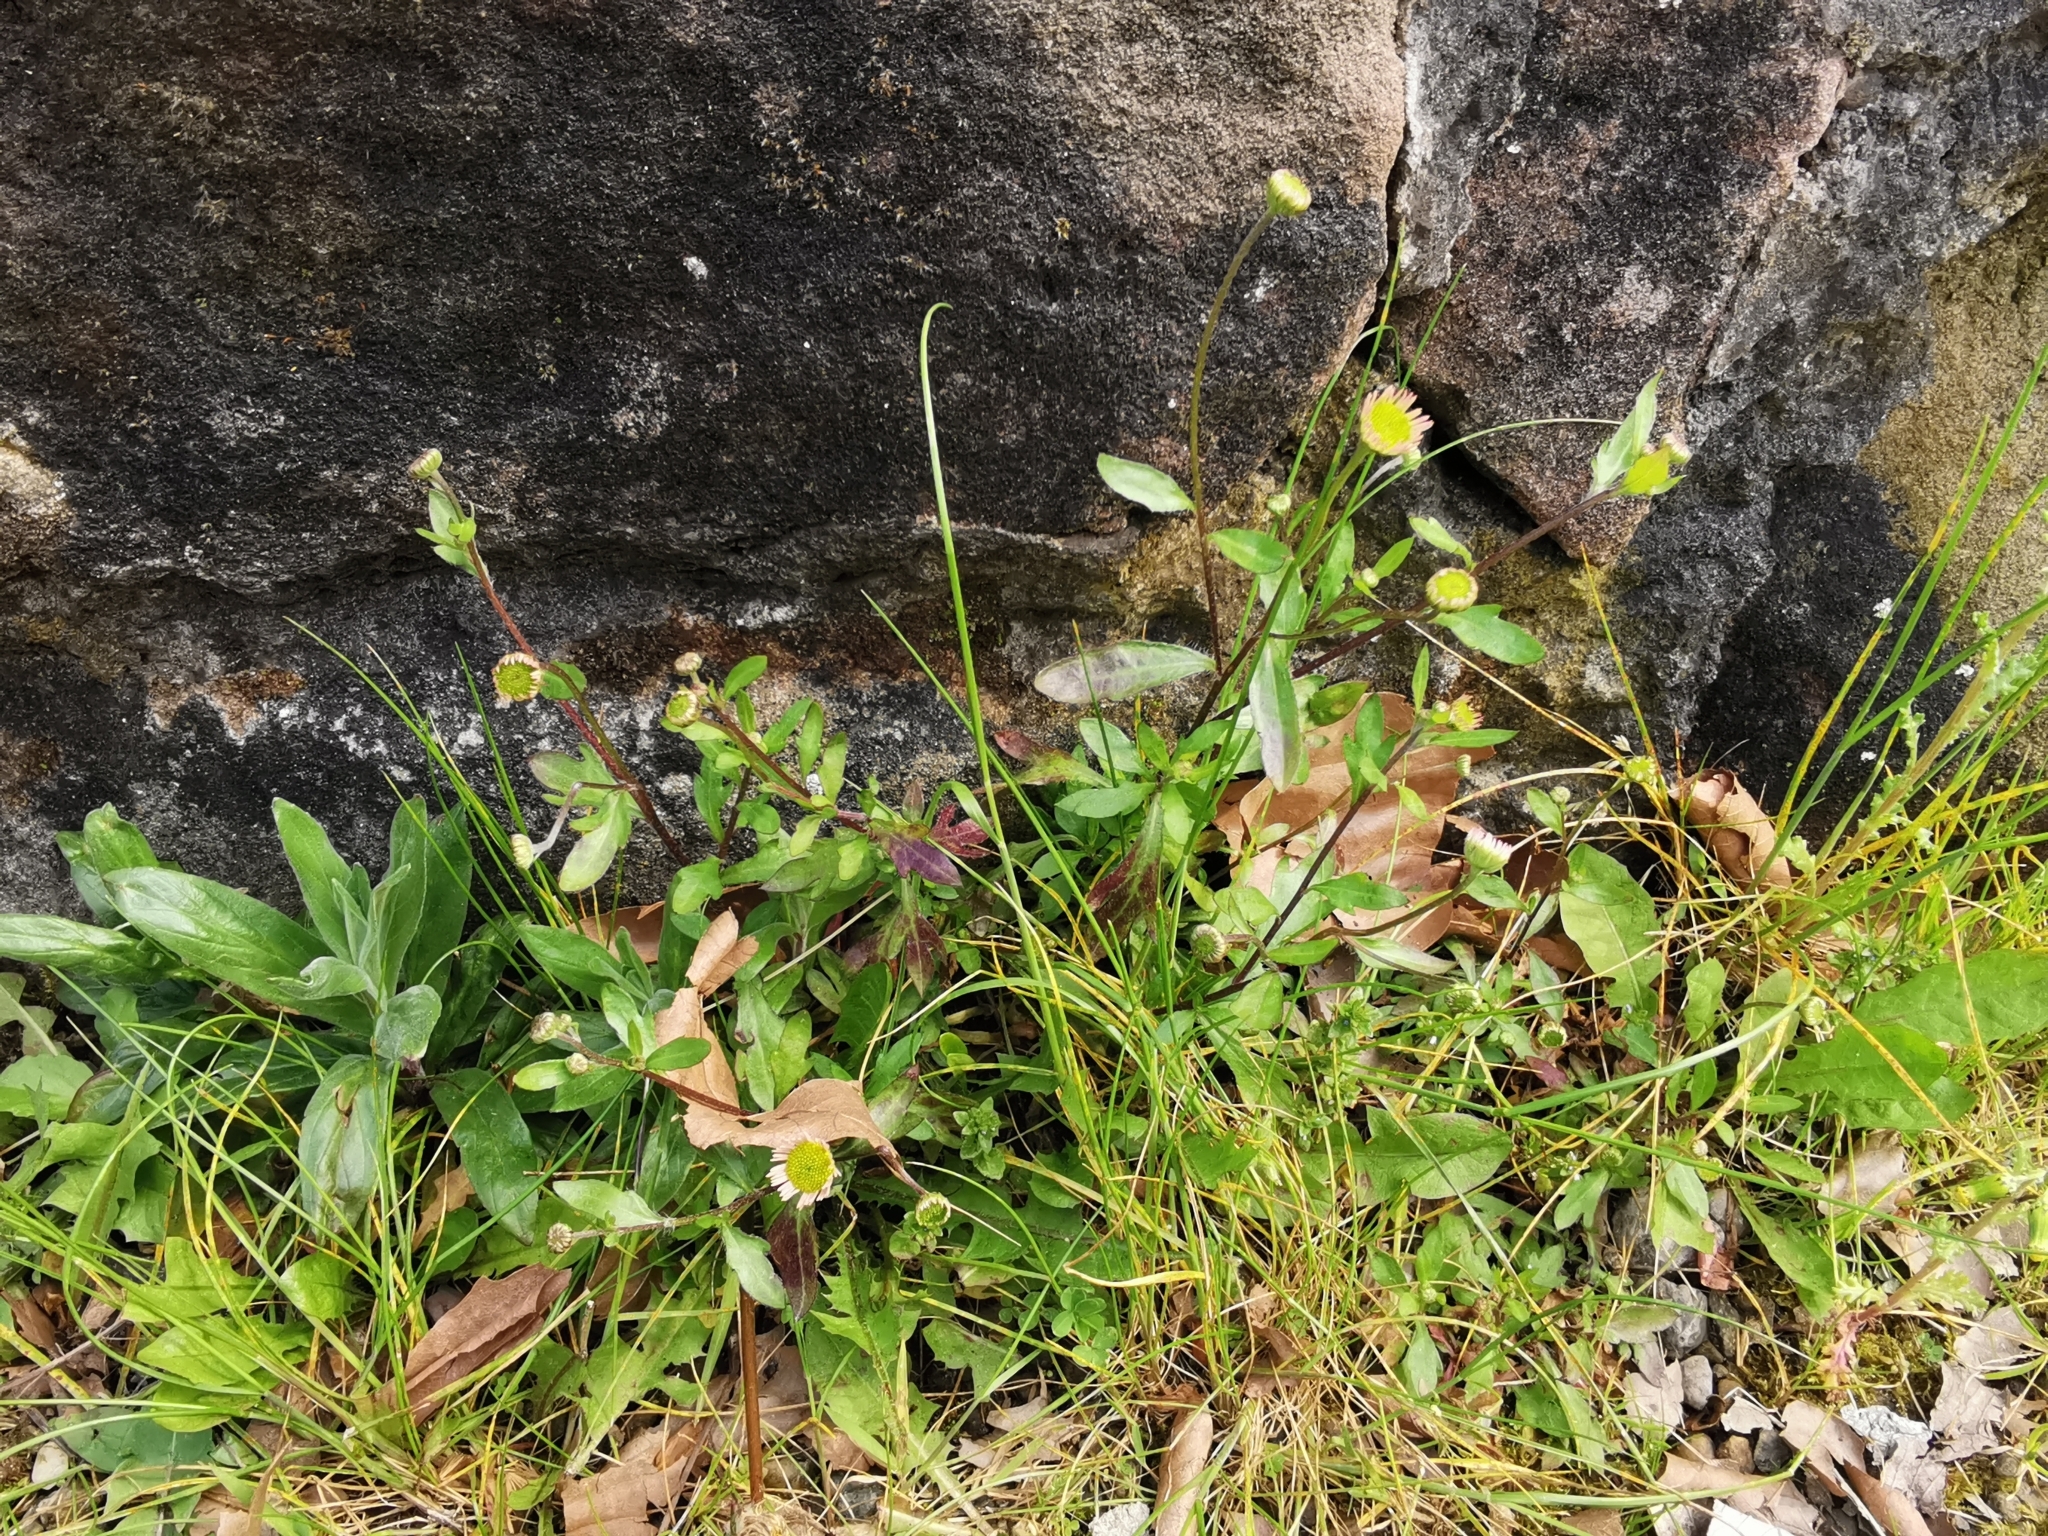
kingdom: Plantae
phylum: Tracheophyta
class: Magnoliopsida
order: Asterales
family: Asteraceae
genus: Erigeron
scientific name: Erigeron karvinskianus
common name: Mexican fleabane
